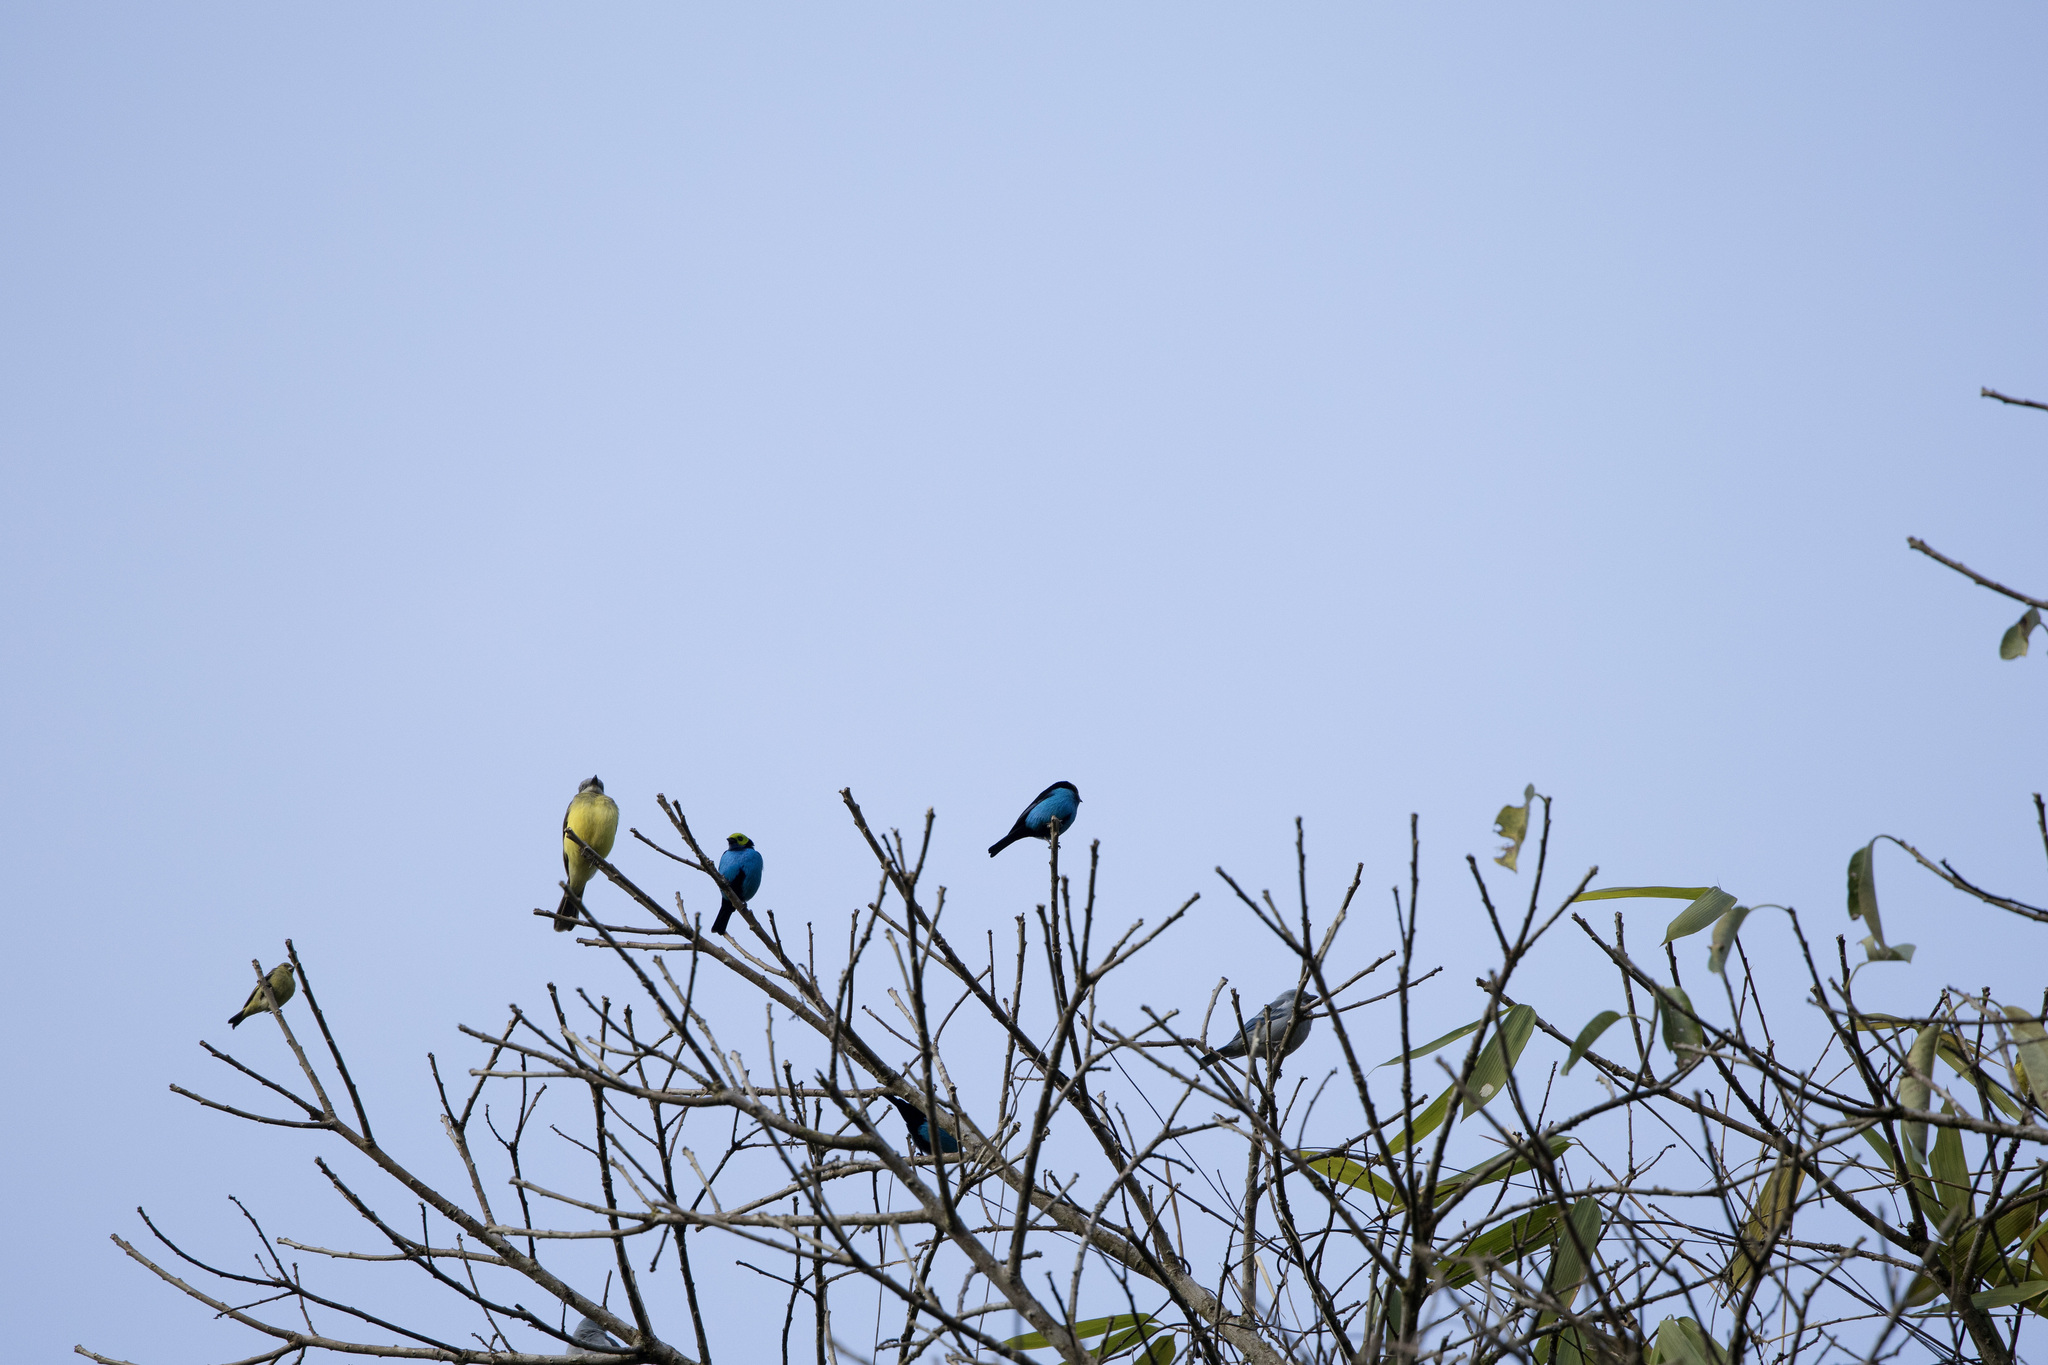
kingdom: Animalia
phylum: Chordata
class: Aves
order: Passeriformes
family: Tyrannidae
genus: Tyrannus
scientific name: Tyrannus melancholicus
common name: Tropical kingbird
